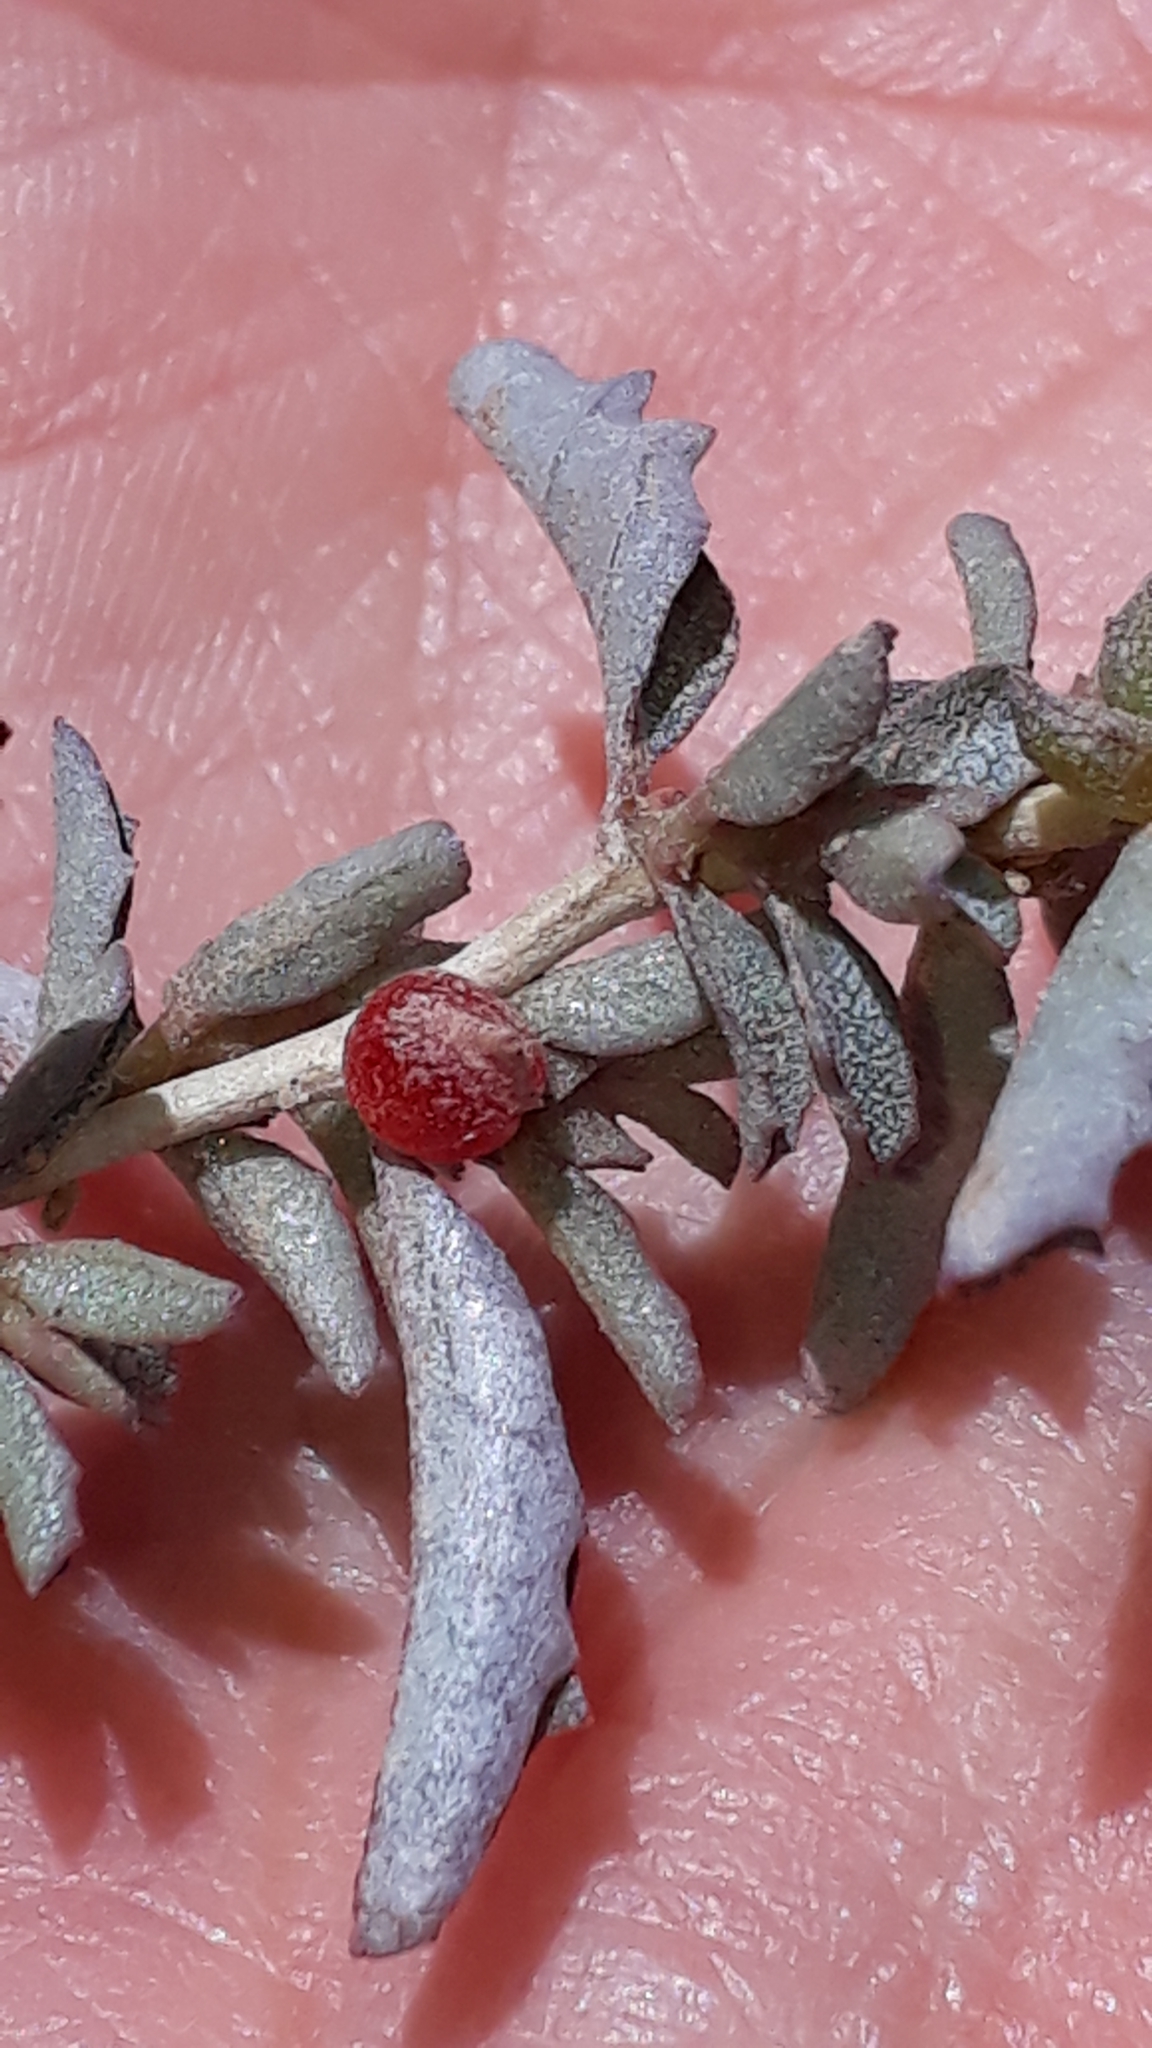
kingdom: Plantae
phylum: Tracheophyta
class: Magnoliopsida
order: Caryophyllales
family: Amaranthaceae
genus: Atriplex
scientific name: Atriplex semibaccata
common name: Australian saltbush
